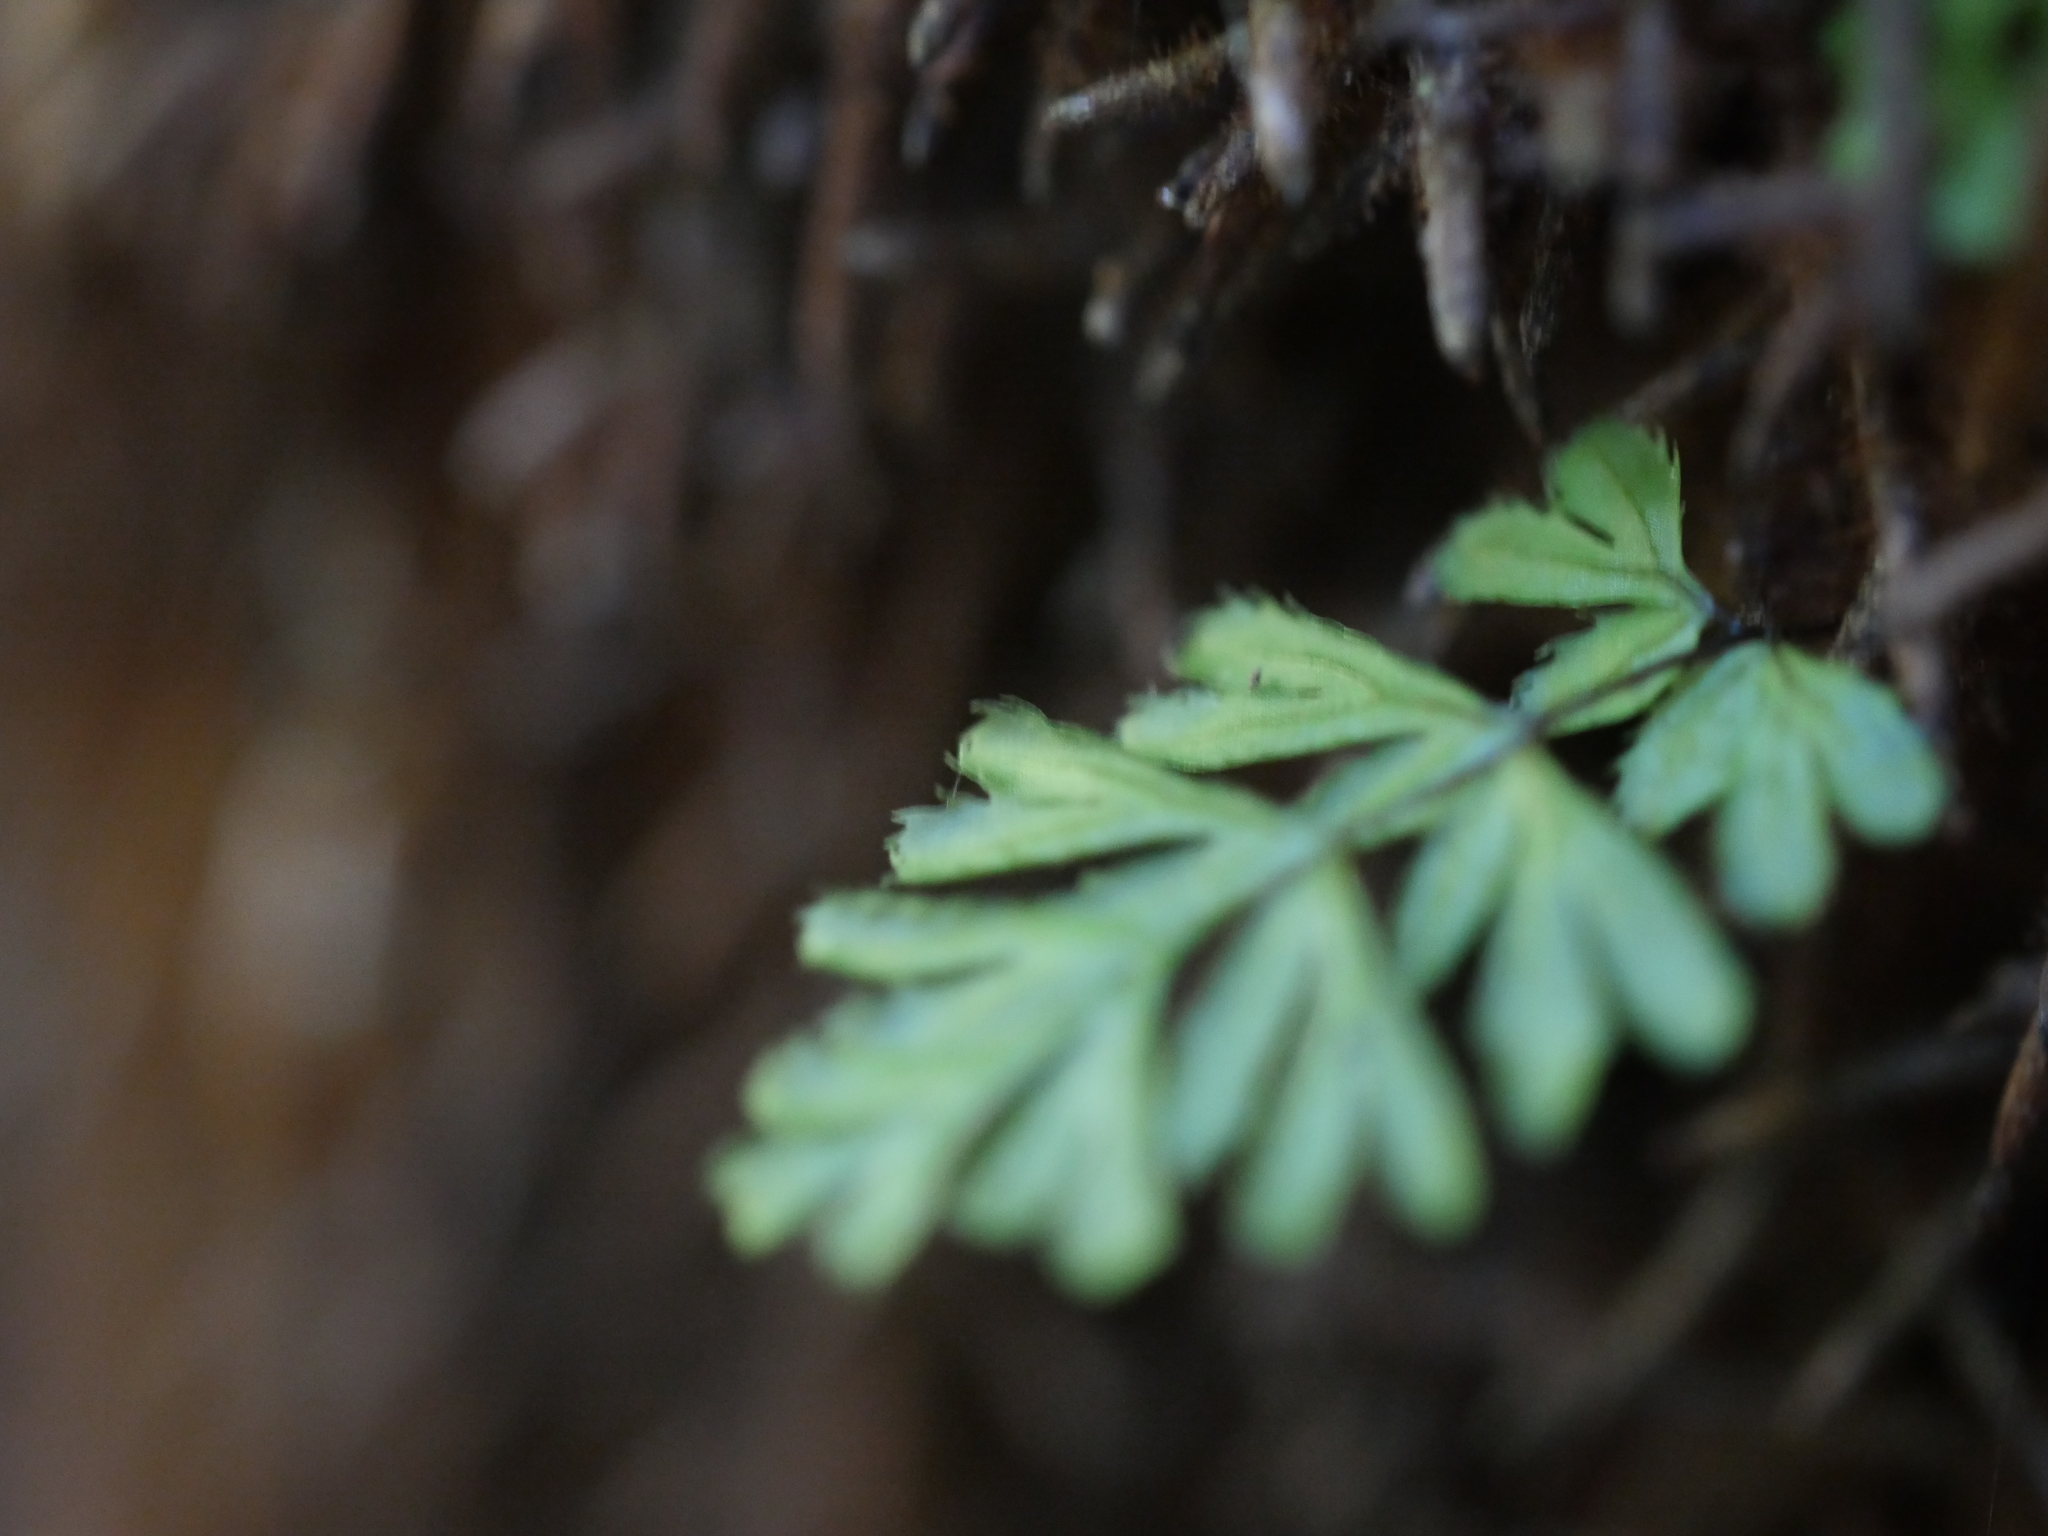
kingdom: Plantae
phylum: Tracheophyta
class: Polypodiopsida
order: Hymenophyllales
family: Hymenophyllaceae
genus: Hymenophyllum
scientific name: Hymenophyllum revolutum
